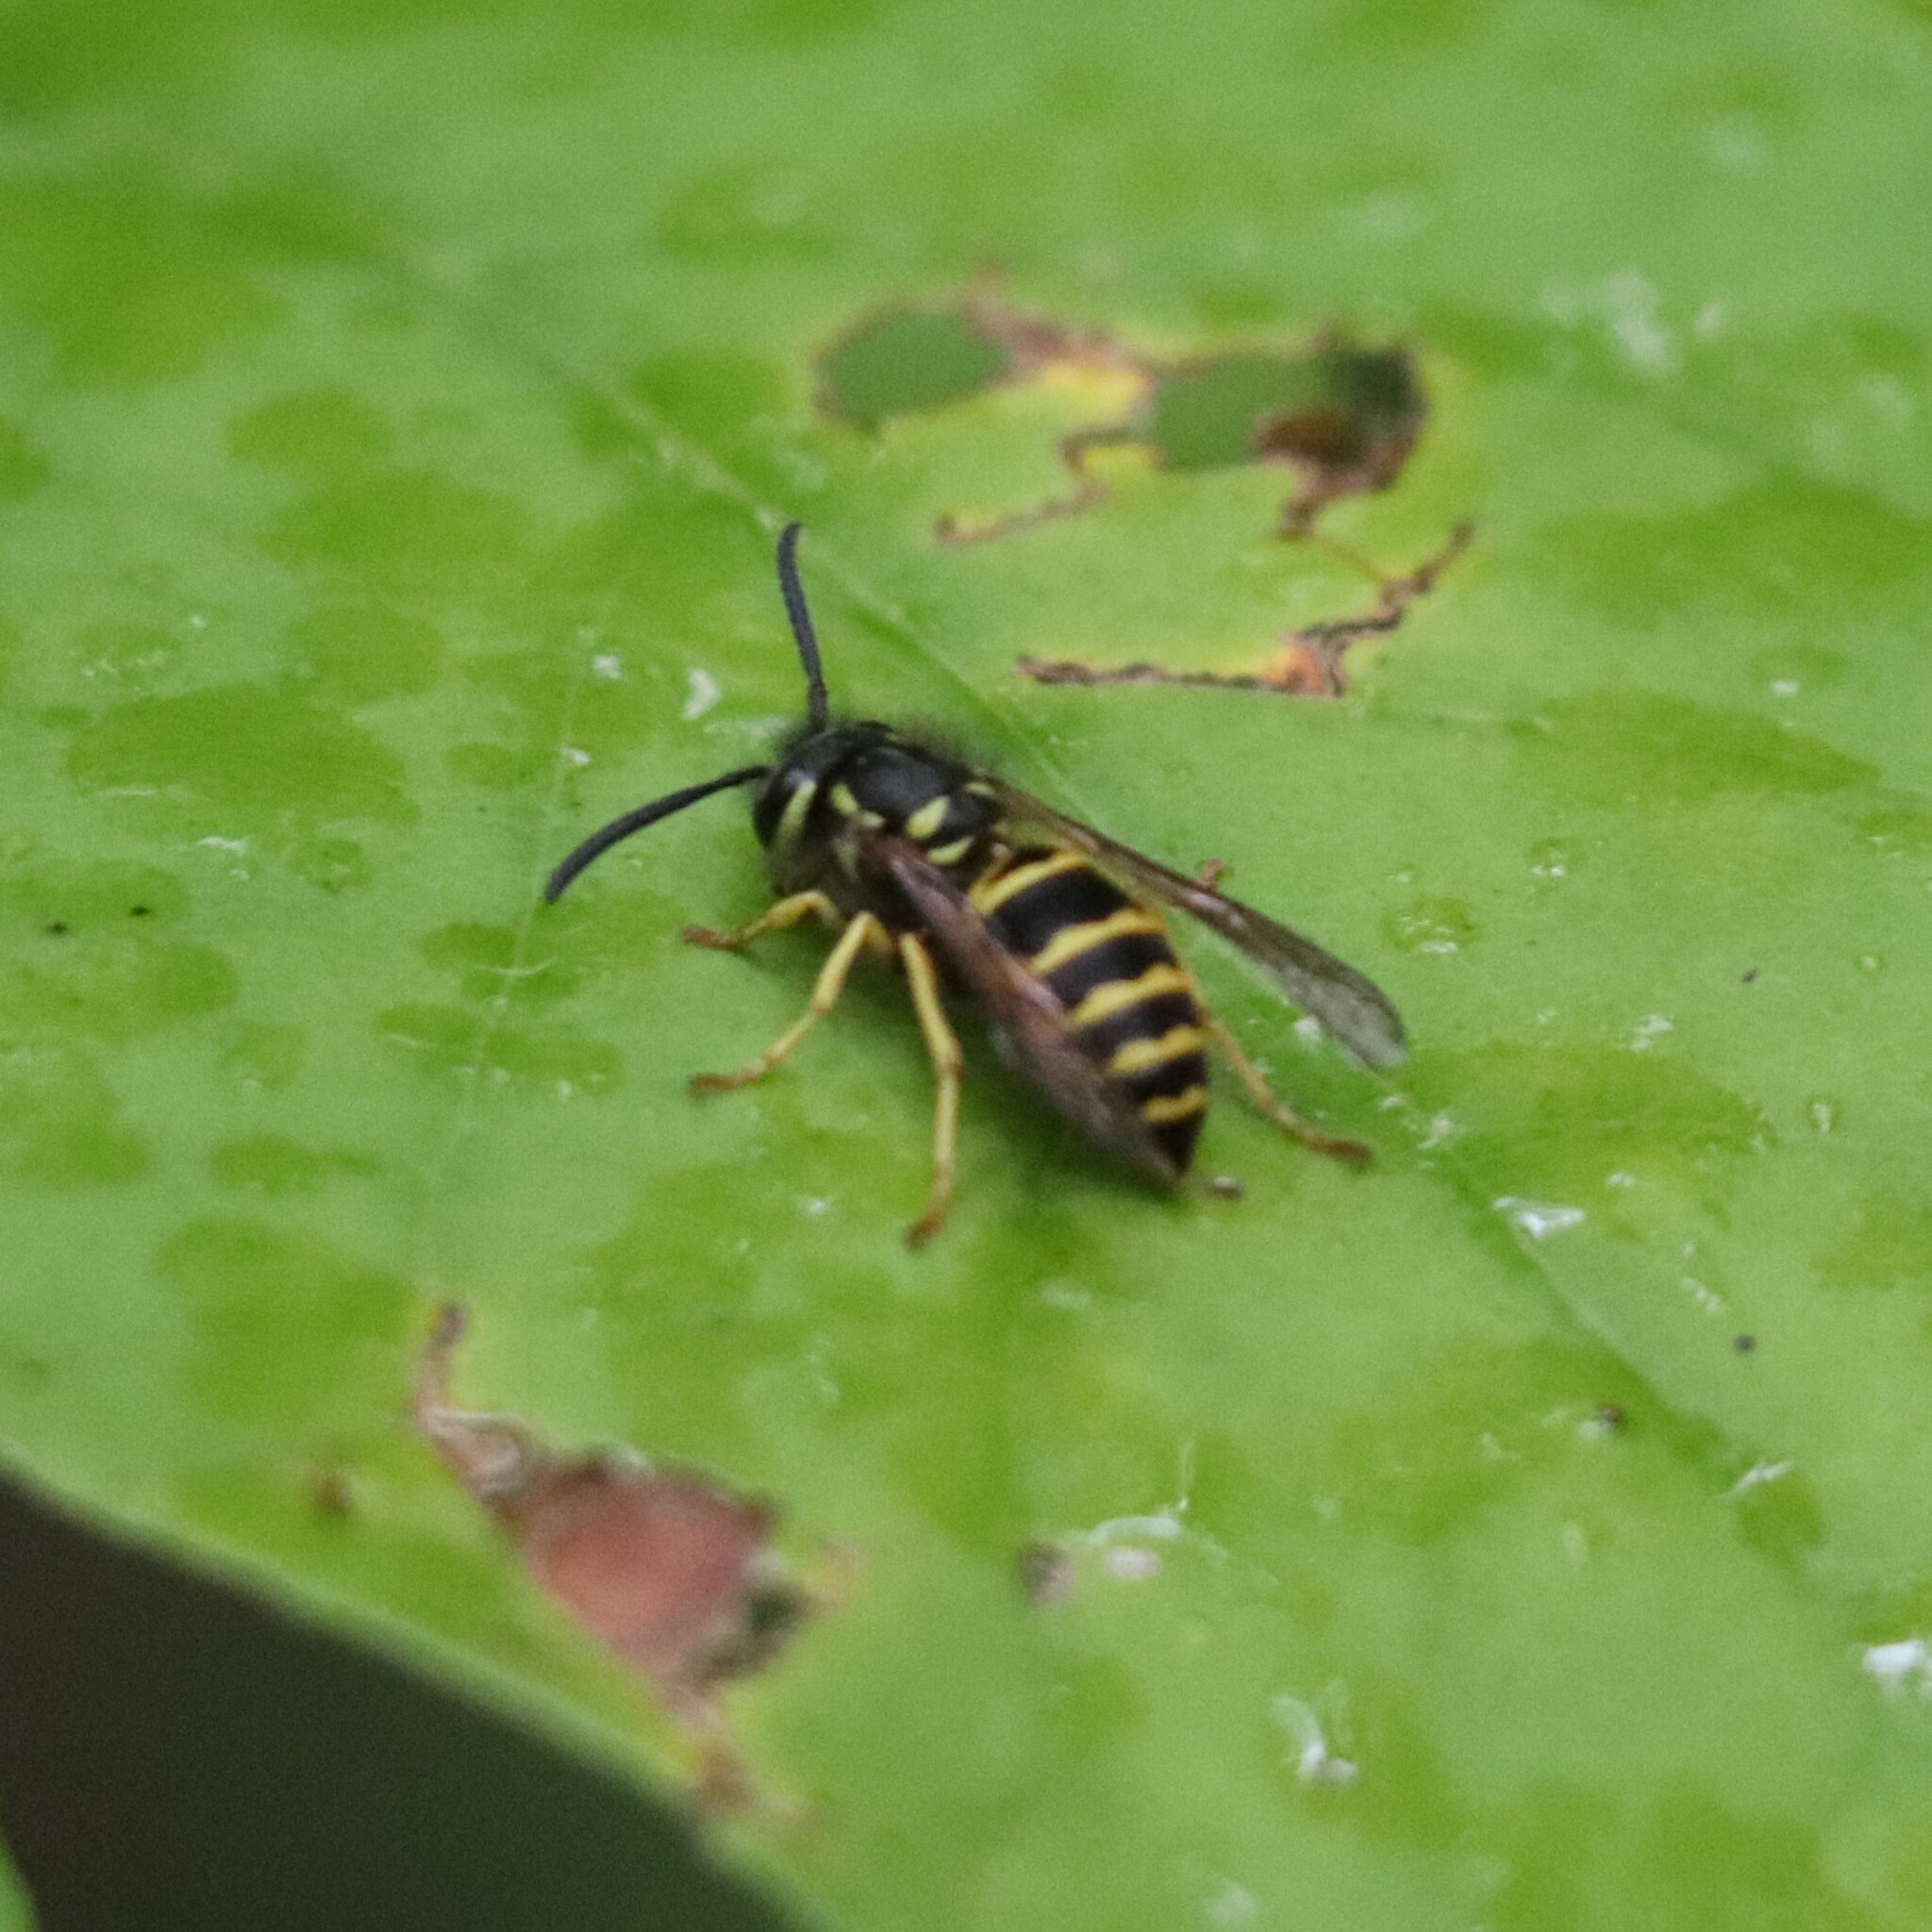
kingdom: Animalia
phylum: Arthropoda
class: Insecta
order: Hymenoptera
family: Vespidae
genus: Vespula
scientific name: Vespula maculifrons
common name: Eastern yellowjacket
